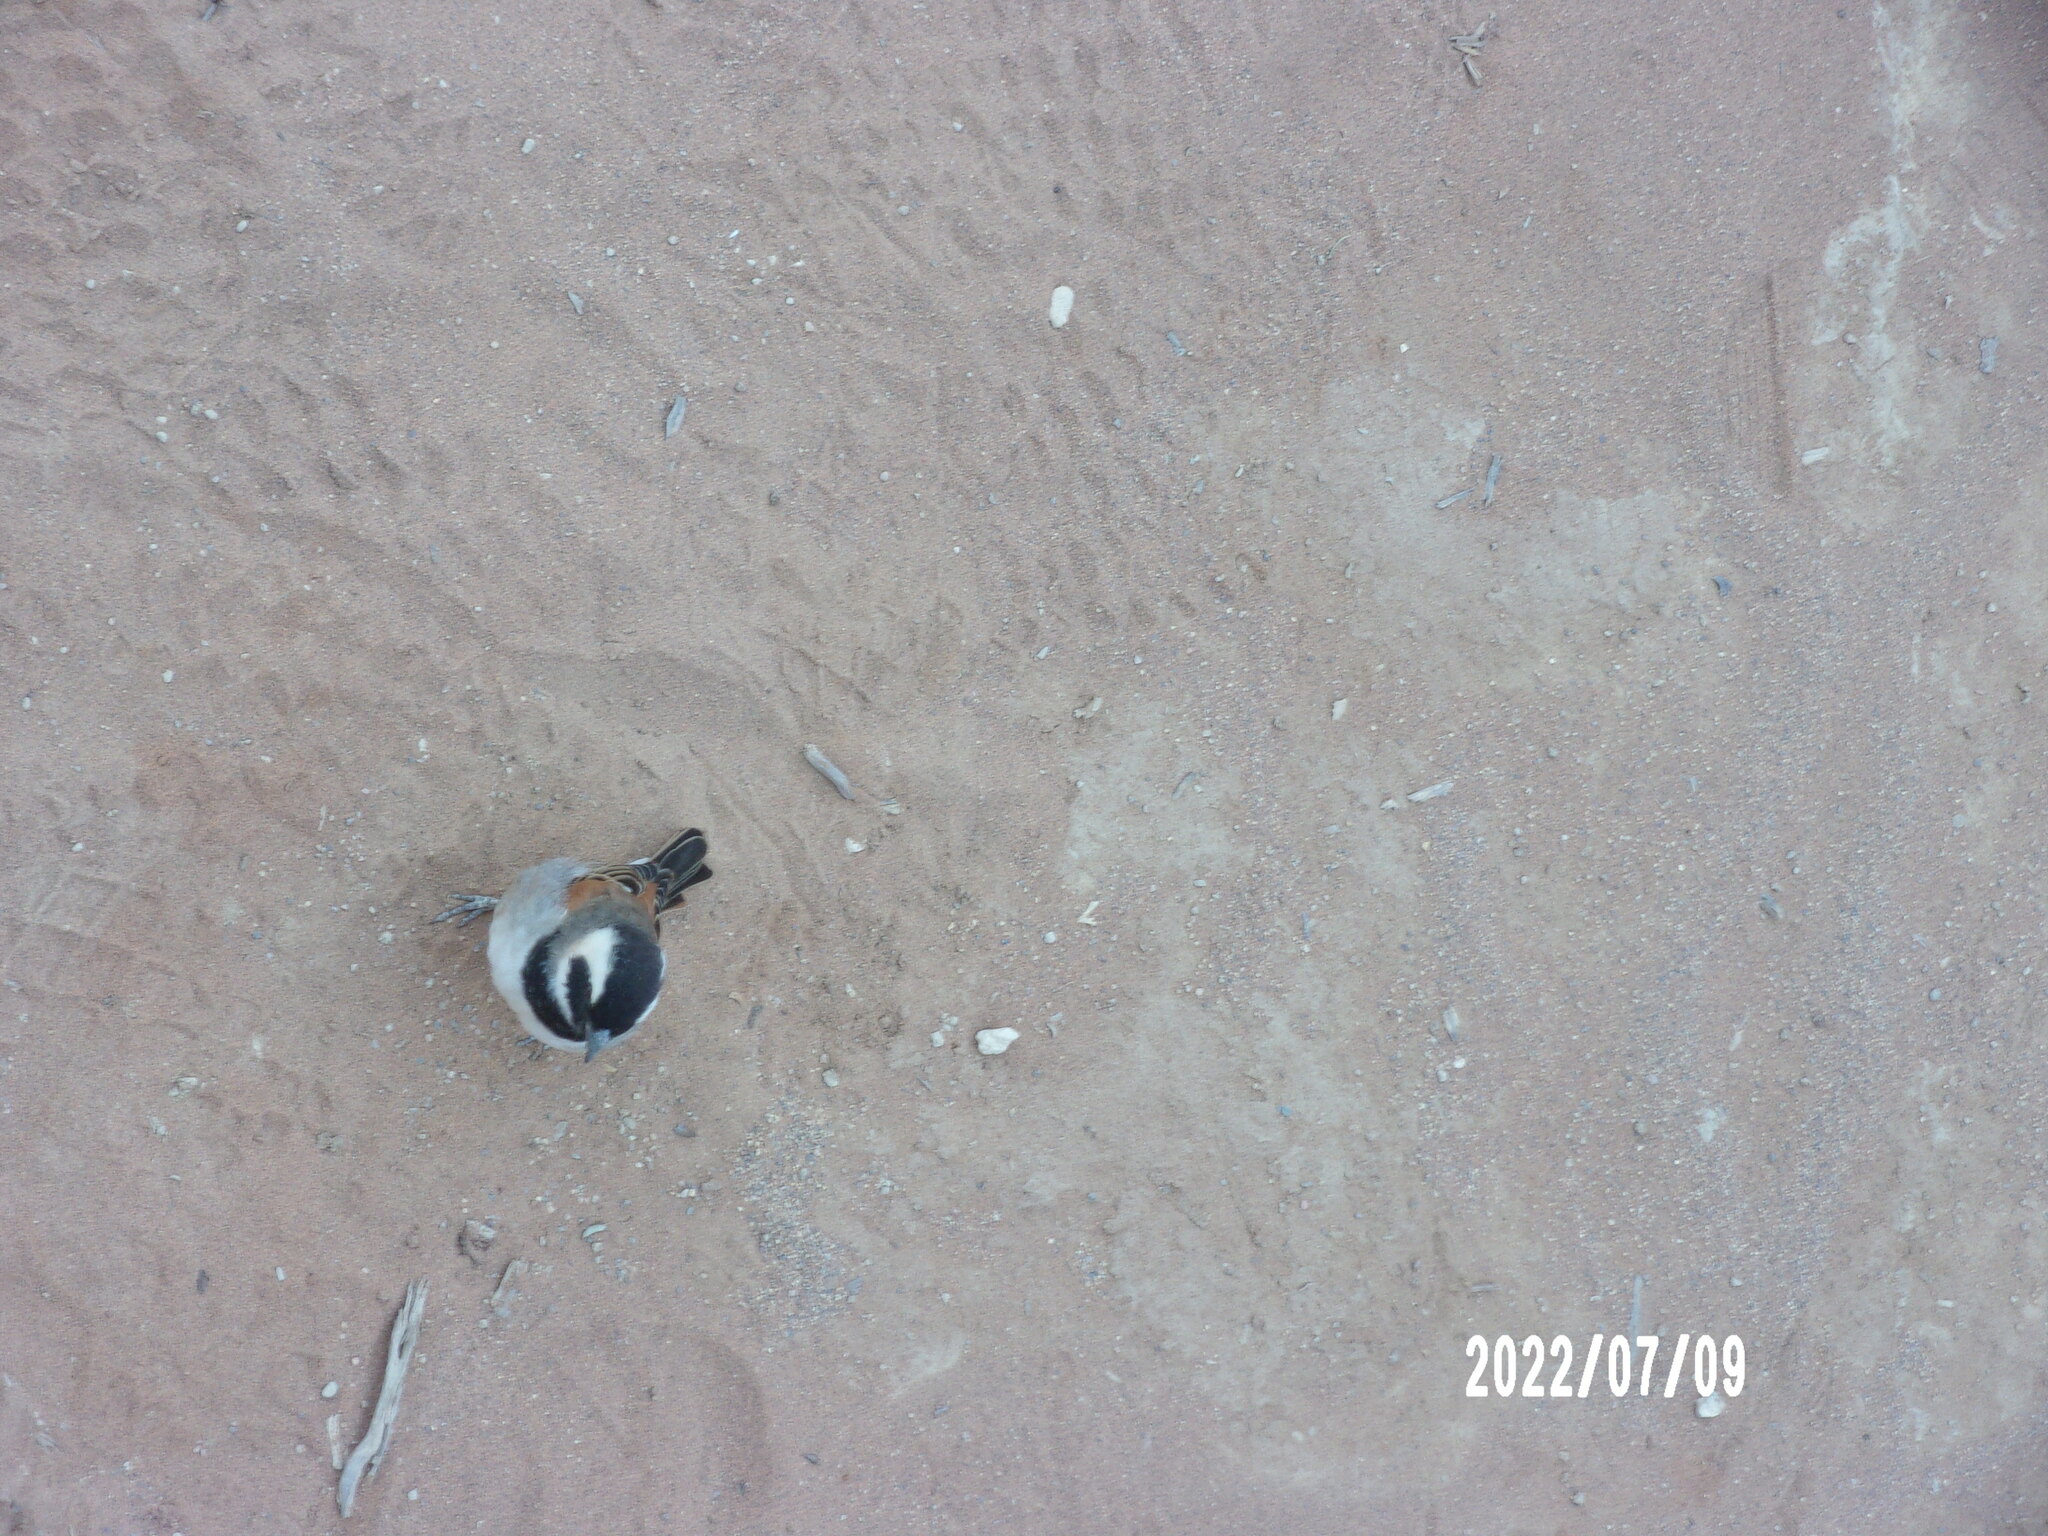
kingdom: Animalia
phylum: Chordata
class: Aves
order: Passeriformes
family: Passeridae
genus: Passer
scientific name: Passer melanurus
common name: Cape sparrow
